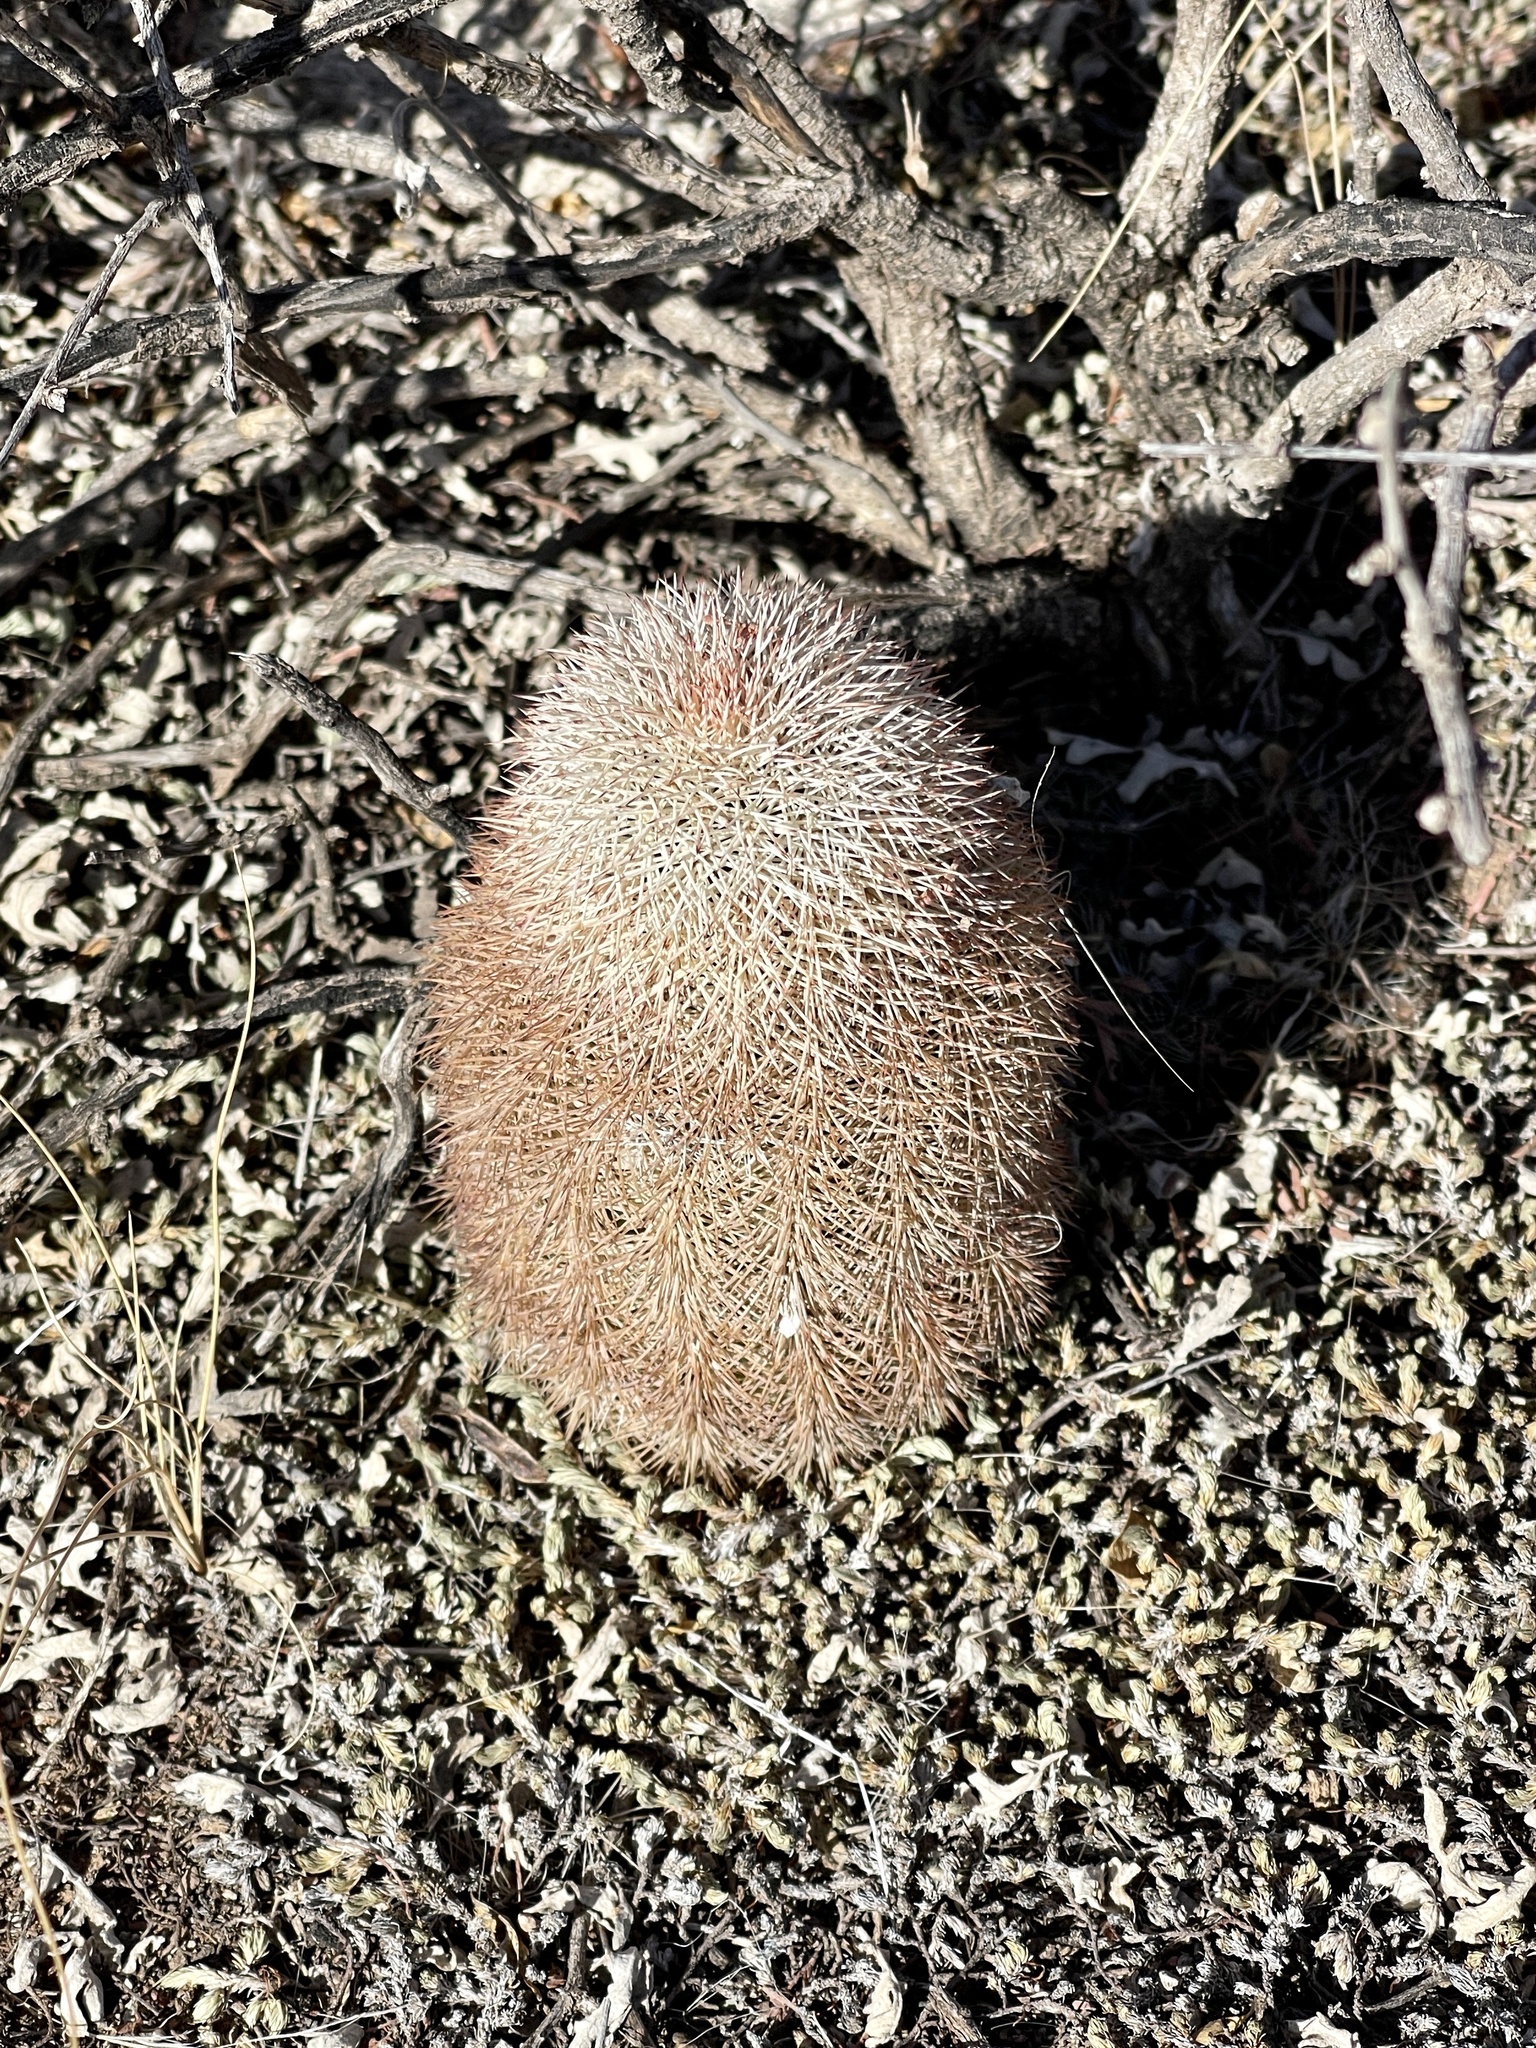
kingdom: Plantae
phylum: Tracheophyta
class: Magnoliopsida
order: Caryophyllales
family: Cactaceae
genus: Echinocereus
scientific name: Echinocereus dasyacanthus
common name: Spiny hedgehog cactus
